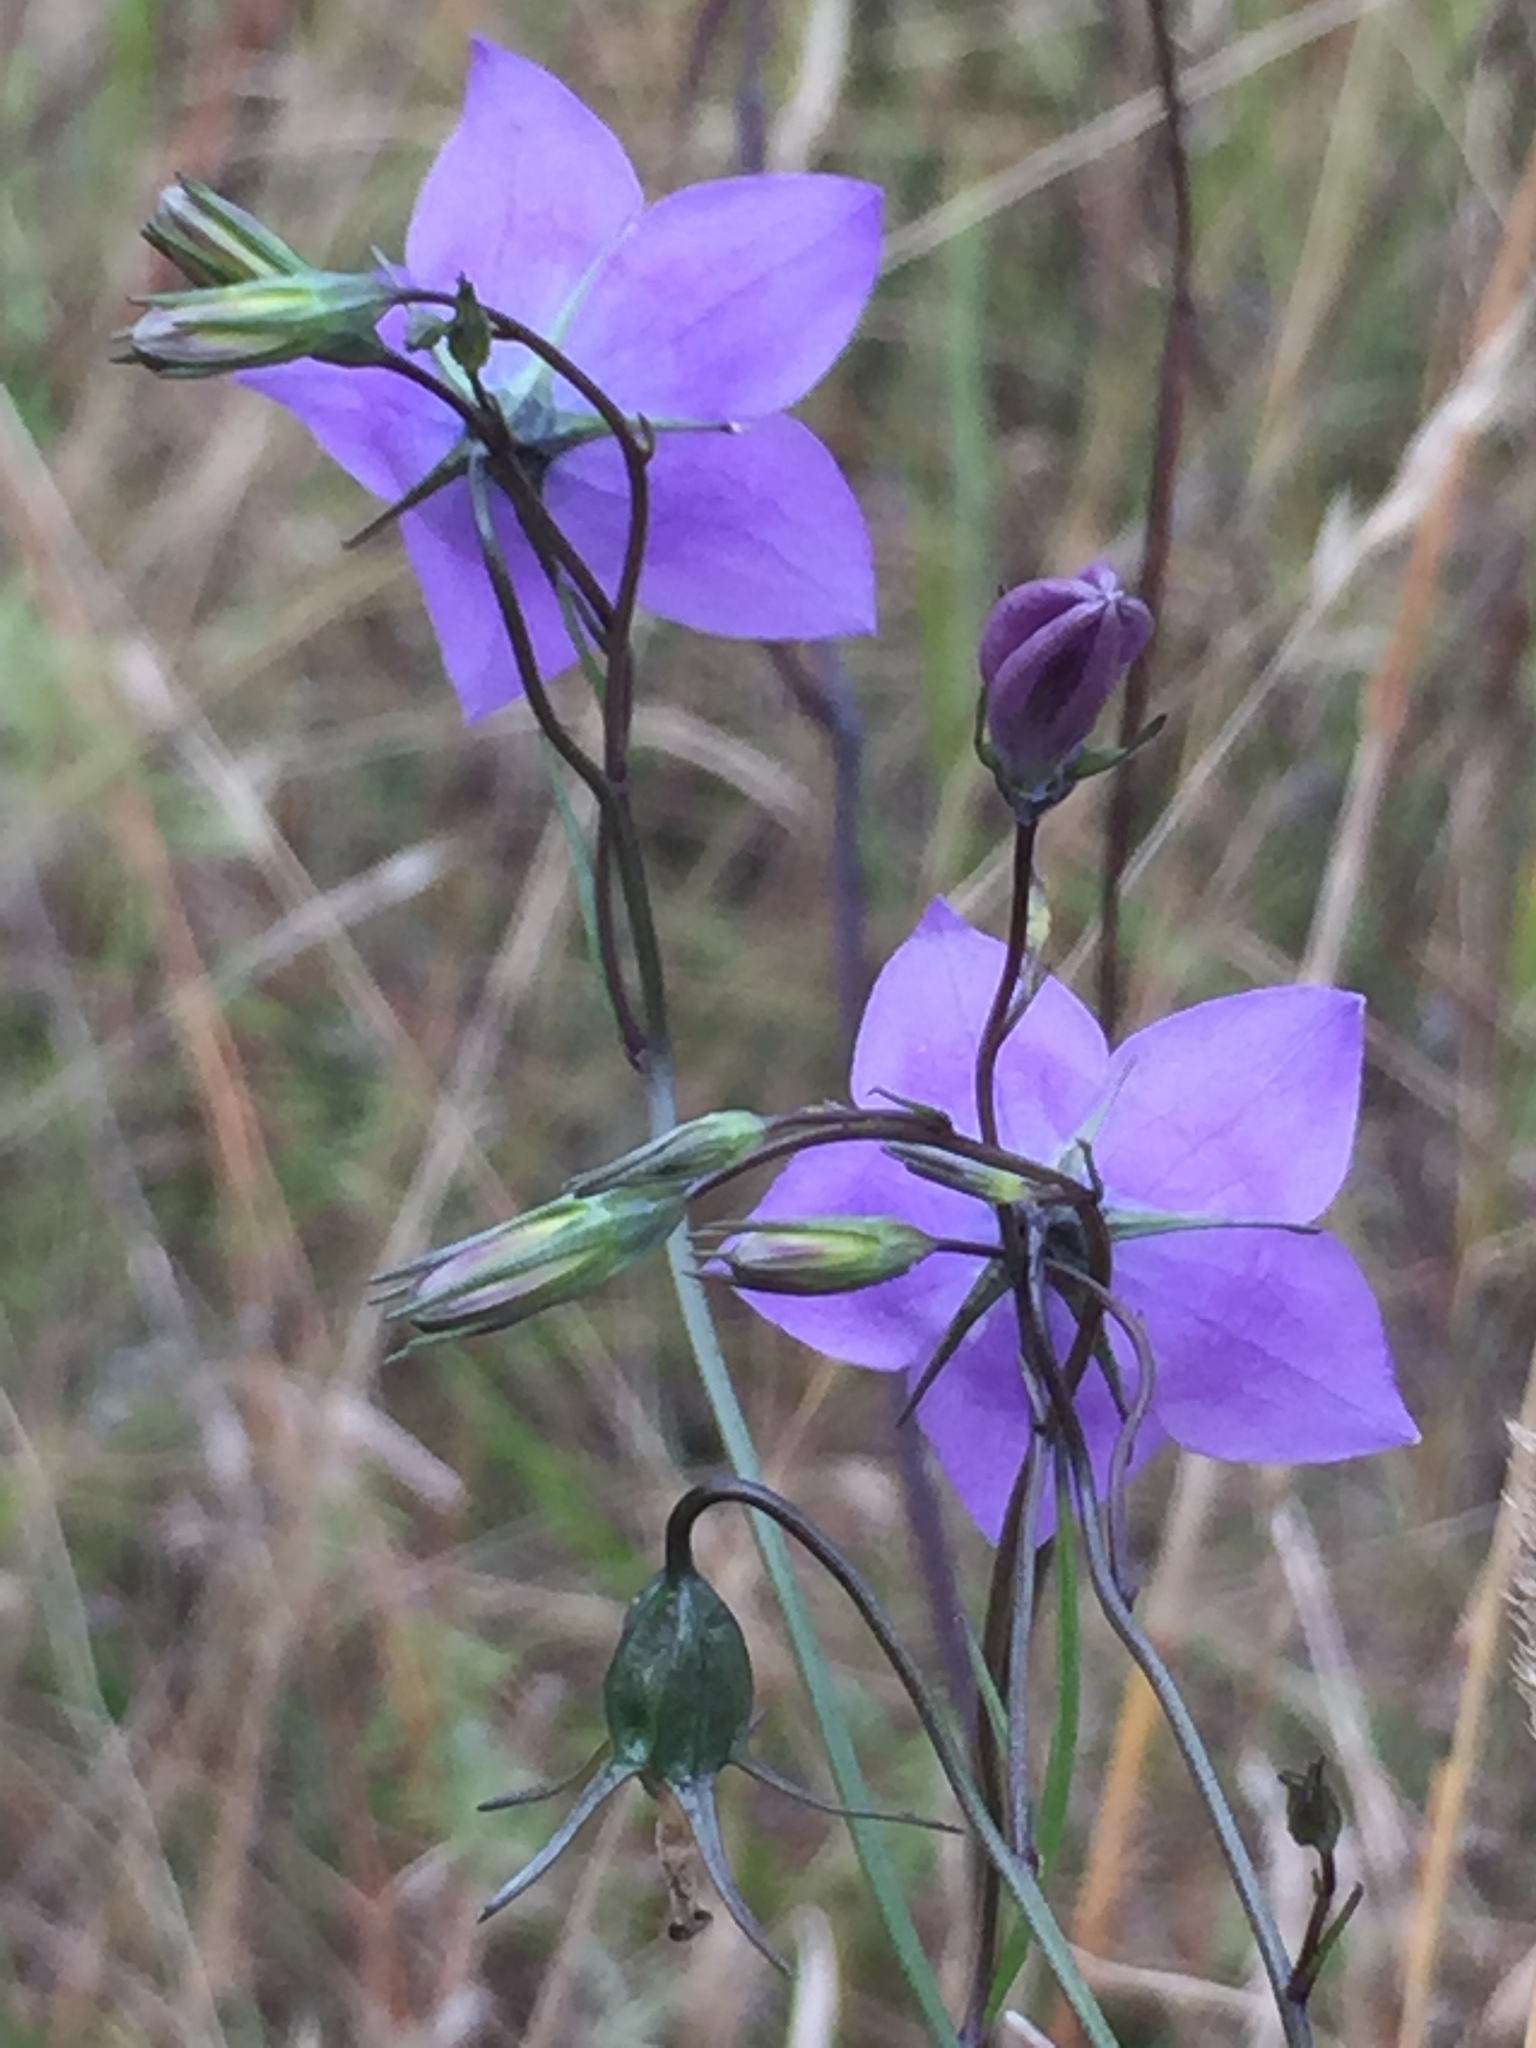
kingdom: Plantae
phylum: Tracheophyta
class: Magnoliopsida
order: Asterales
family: Campanulaceae
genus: Campanula
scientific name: Campanula petiolata
